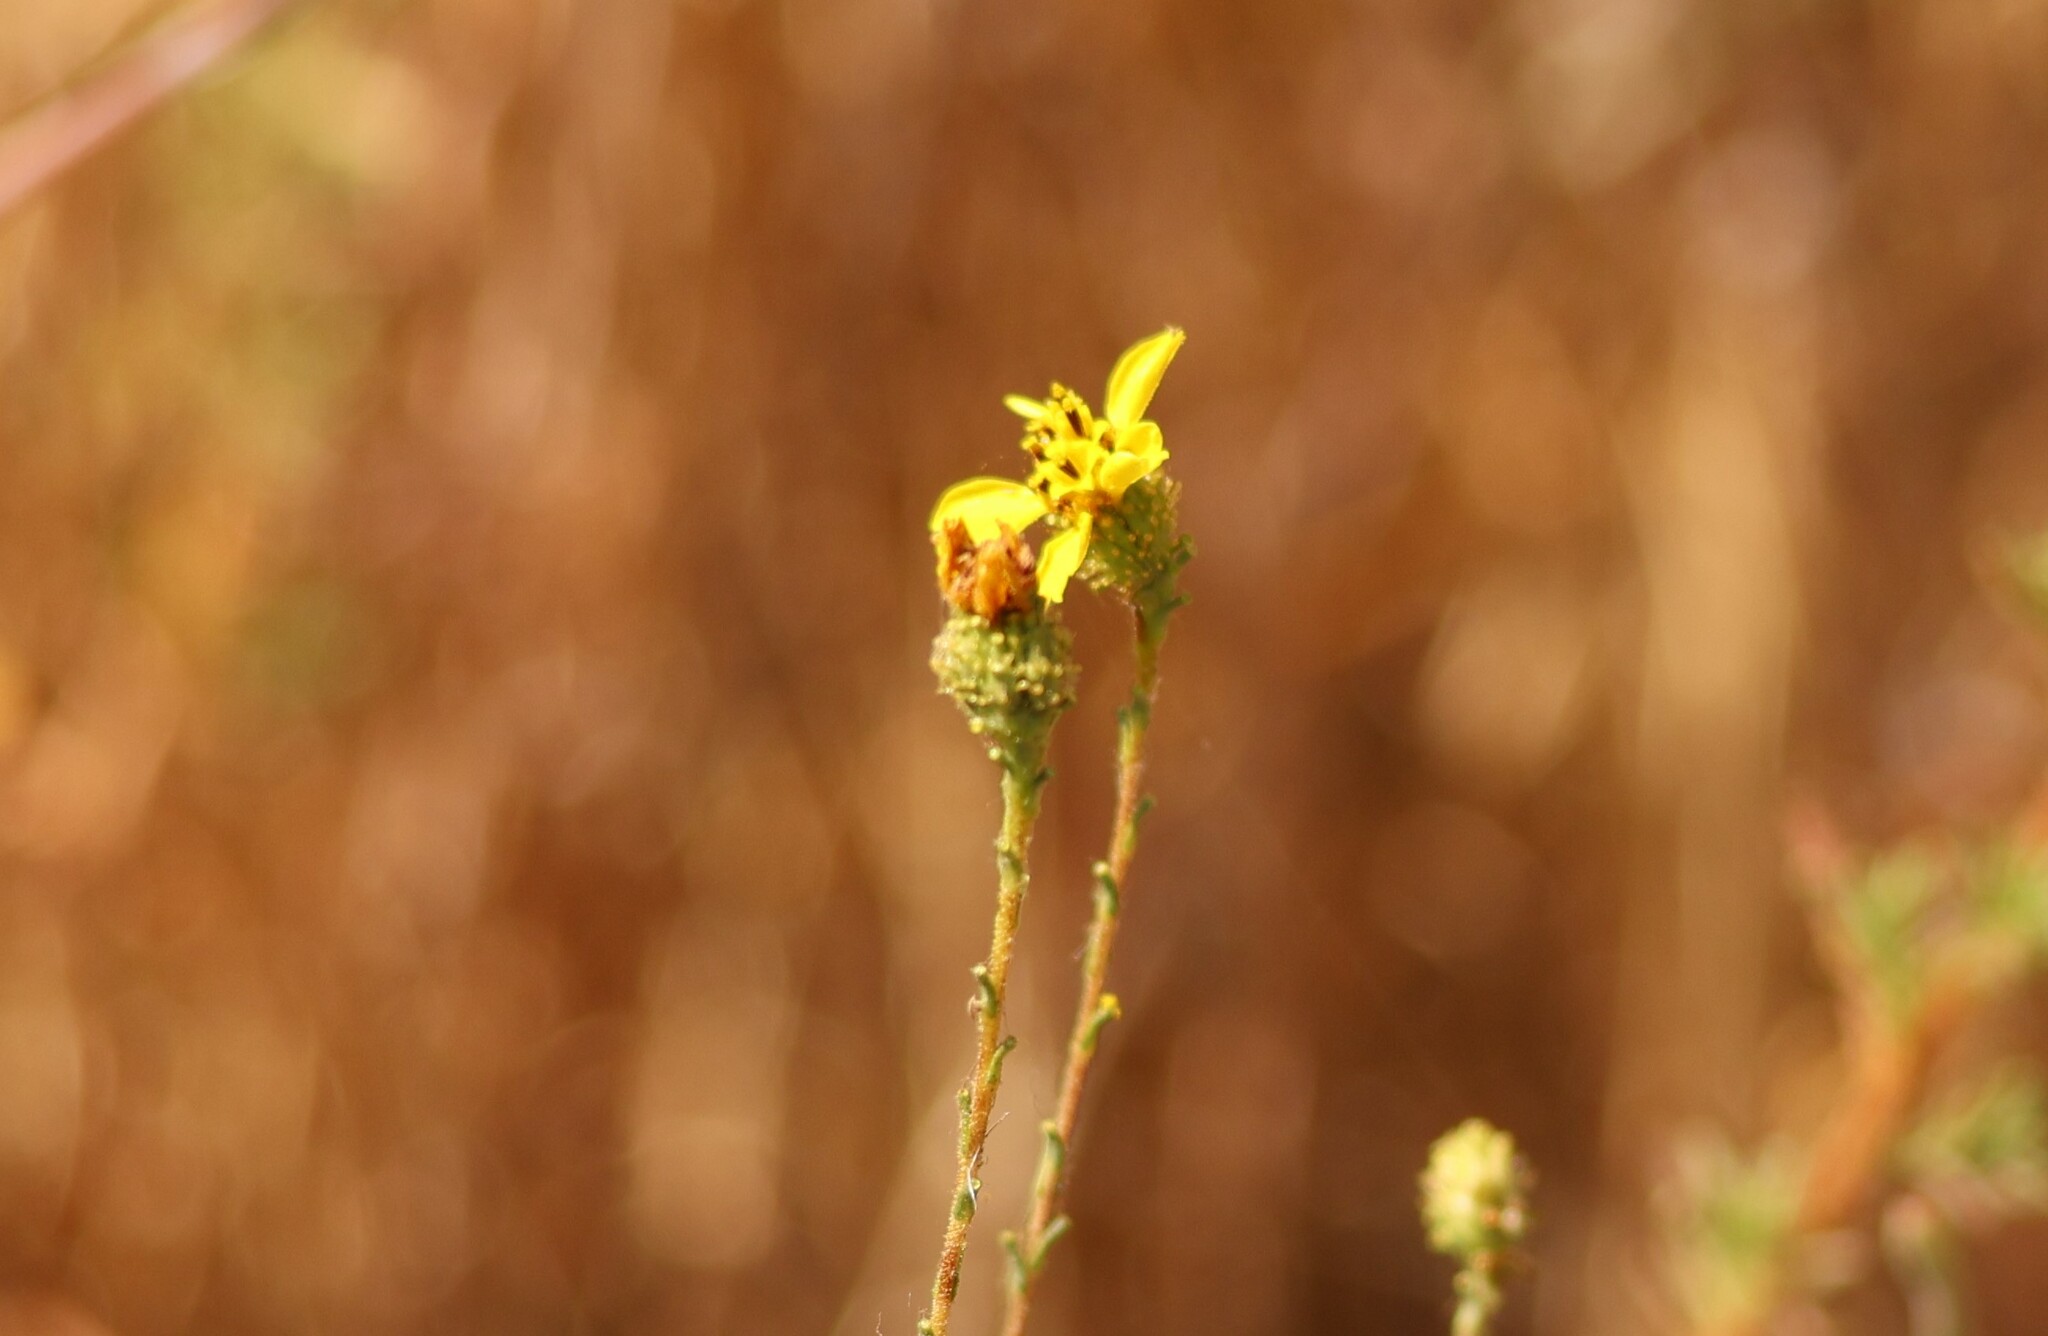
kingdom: Plantae
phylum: Tracheophyta
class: Magnoliopsida
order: Asterales
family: Asteraceae
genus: Holocarpha
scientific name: Holocarpha virgata
